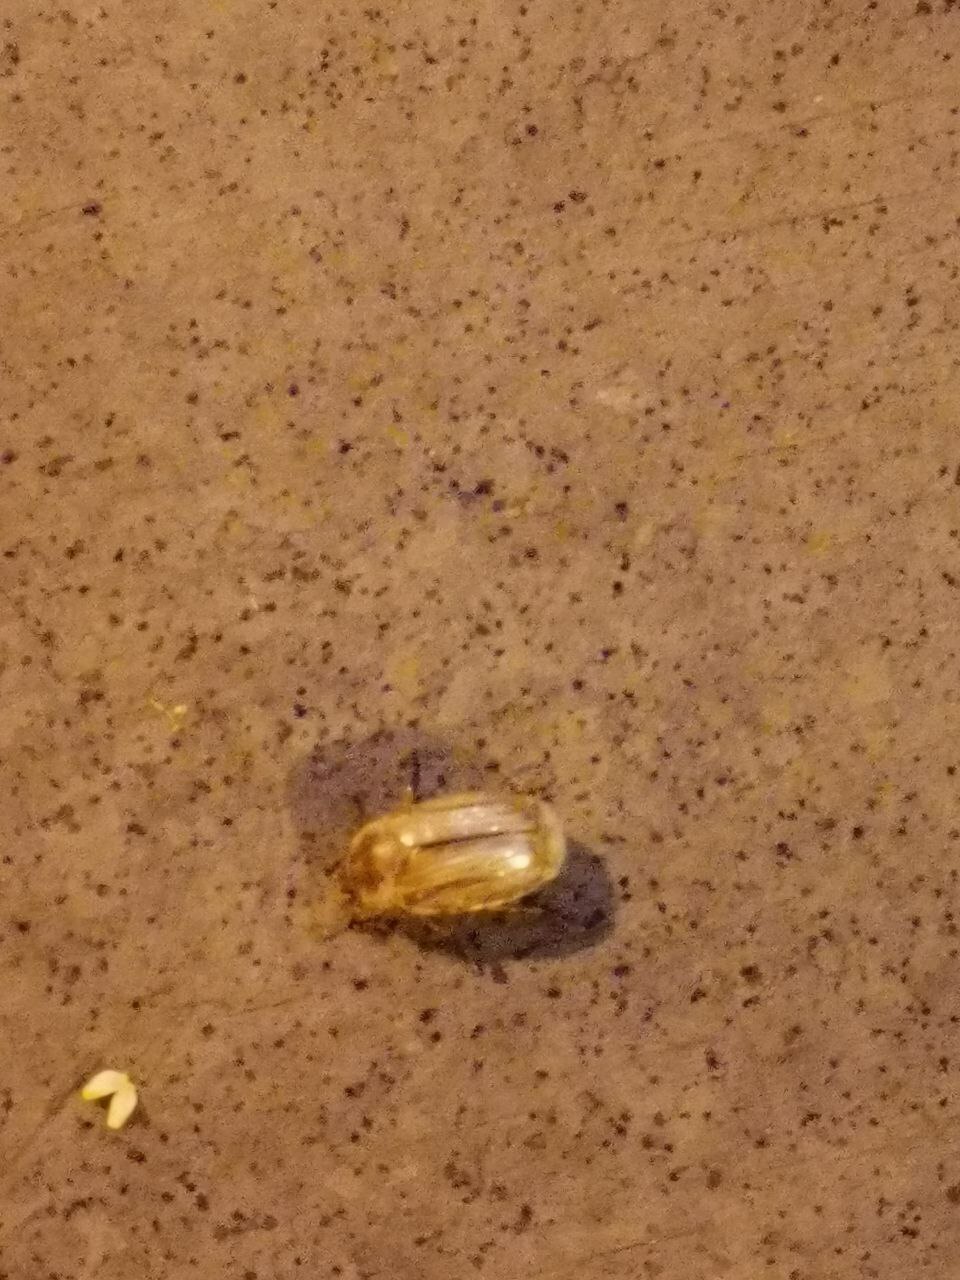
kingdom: Animalia
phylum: Arthropoda
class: Insecta
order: Coleoptera
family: Scarabaeidae
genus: Amphimallon
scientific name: Amphimallon solstitiale
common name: Summer chafer
